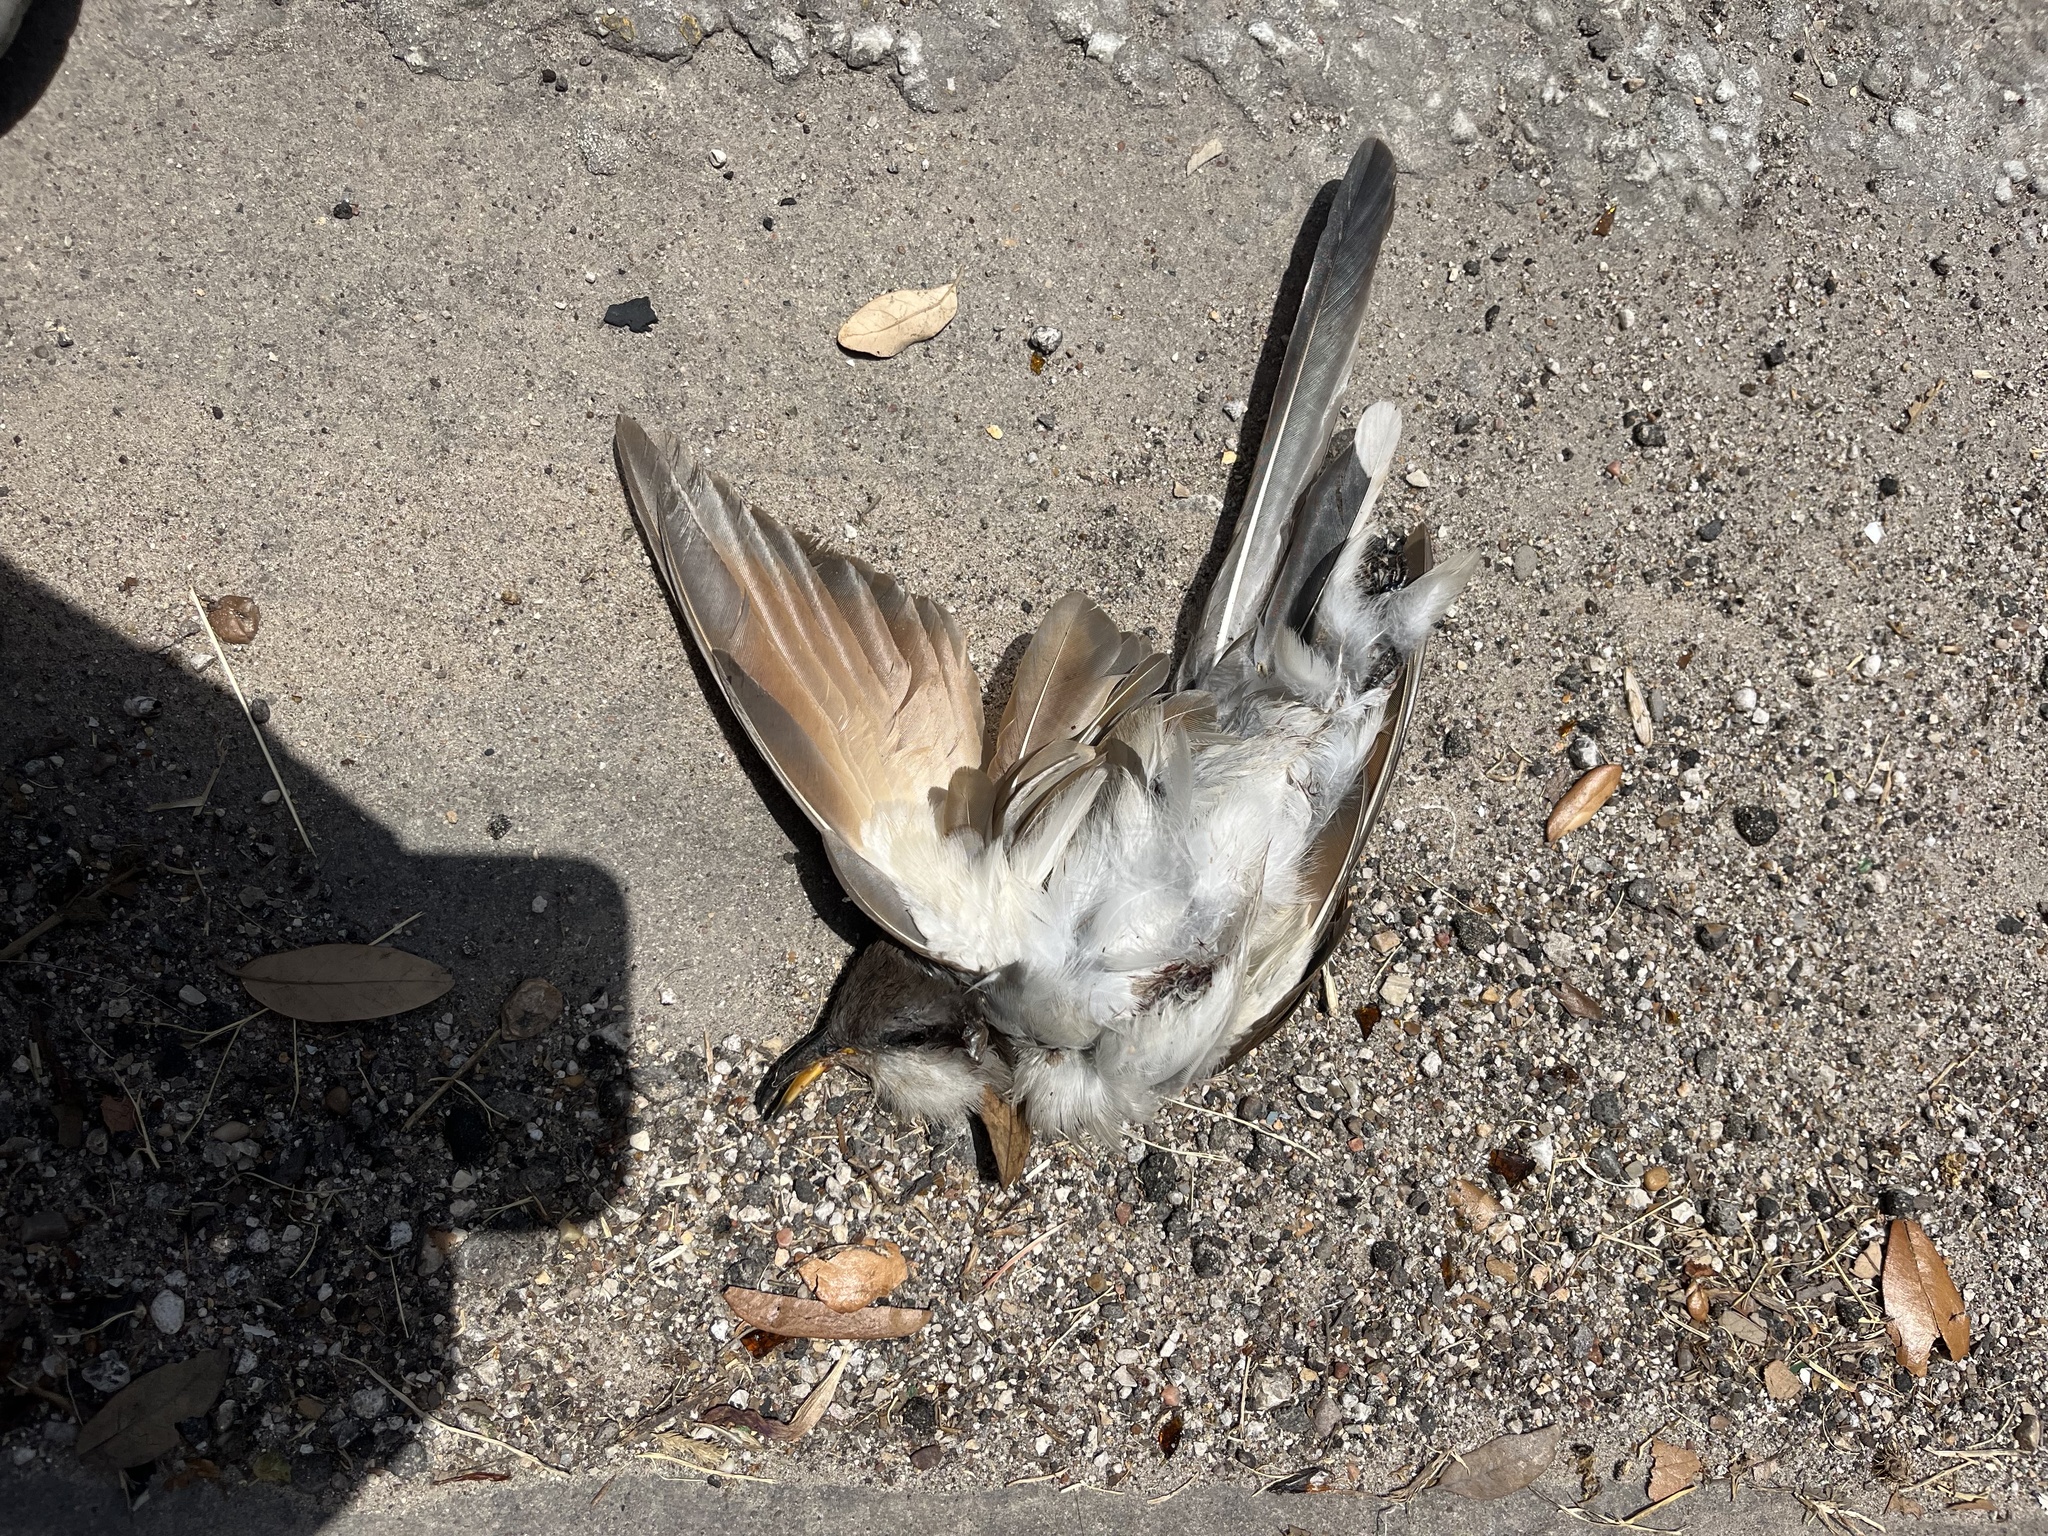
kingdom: Animalia
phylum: Chordata
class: Aves
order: Cuculiformes
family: Cuculidae
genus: Coccyzus
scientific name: Coccyzus americanus
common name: Yellow-billed cuckoo
